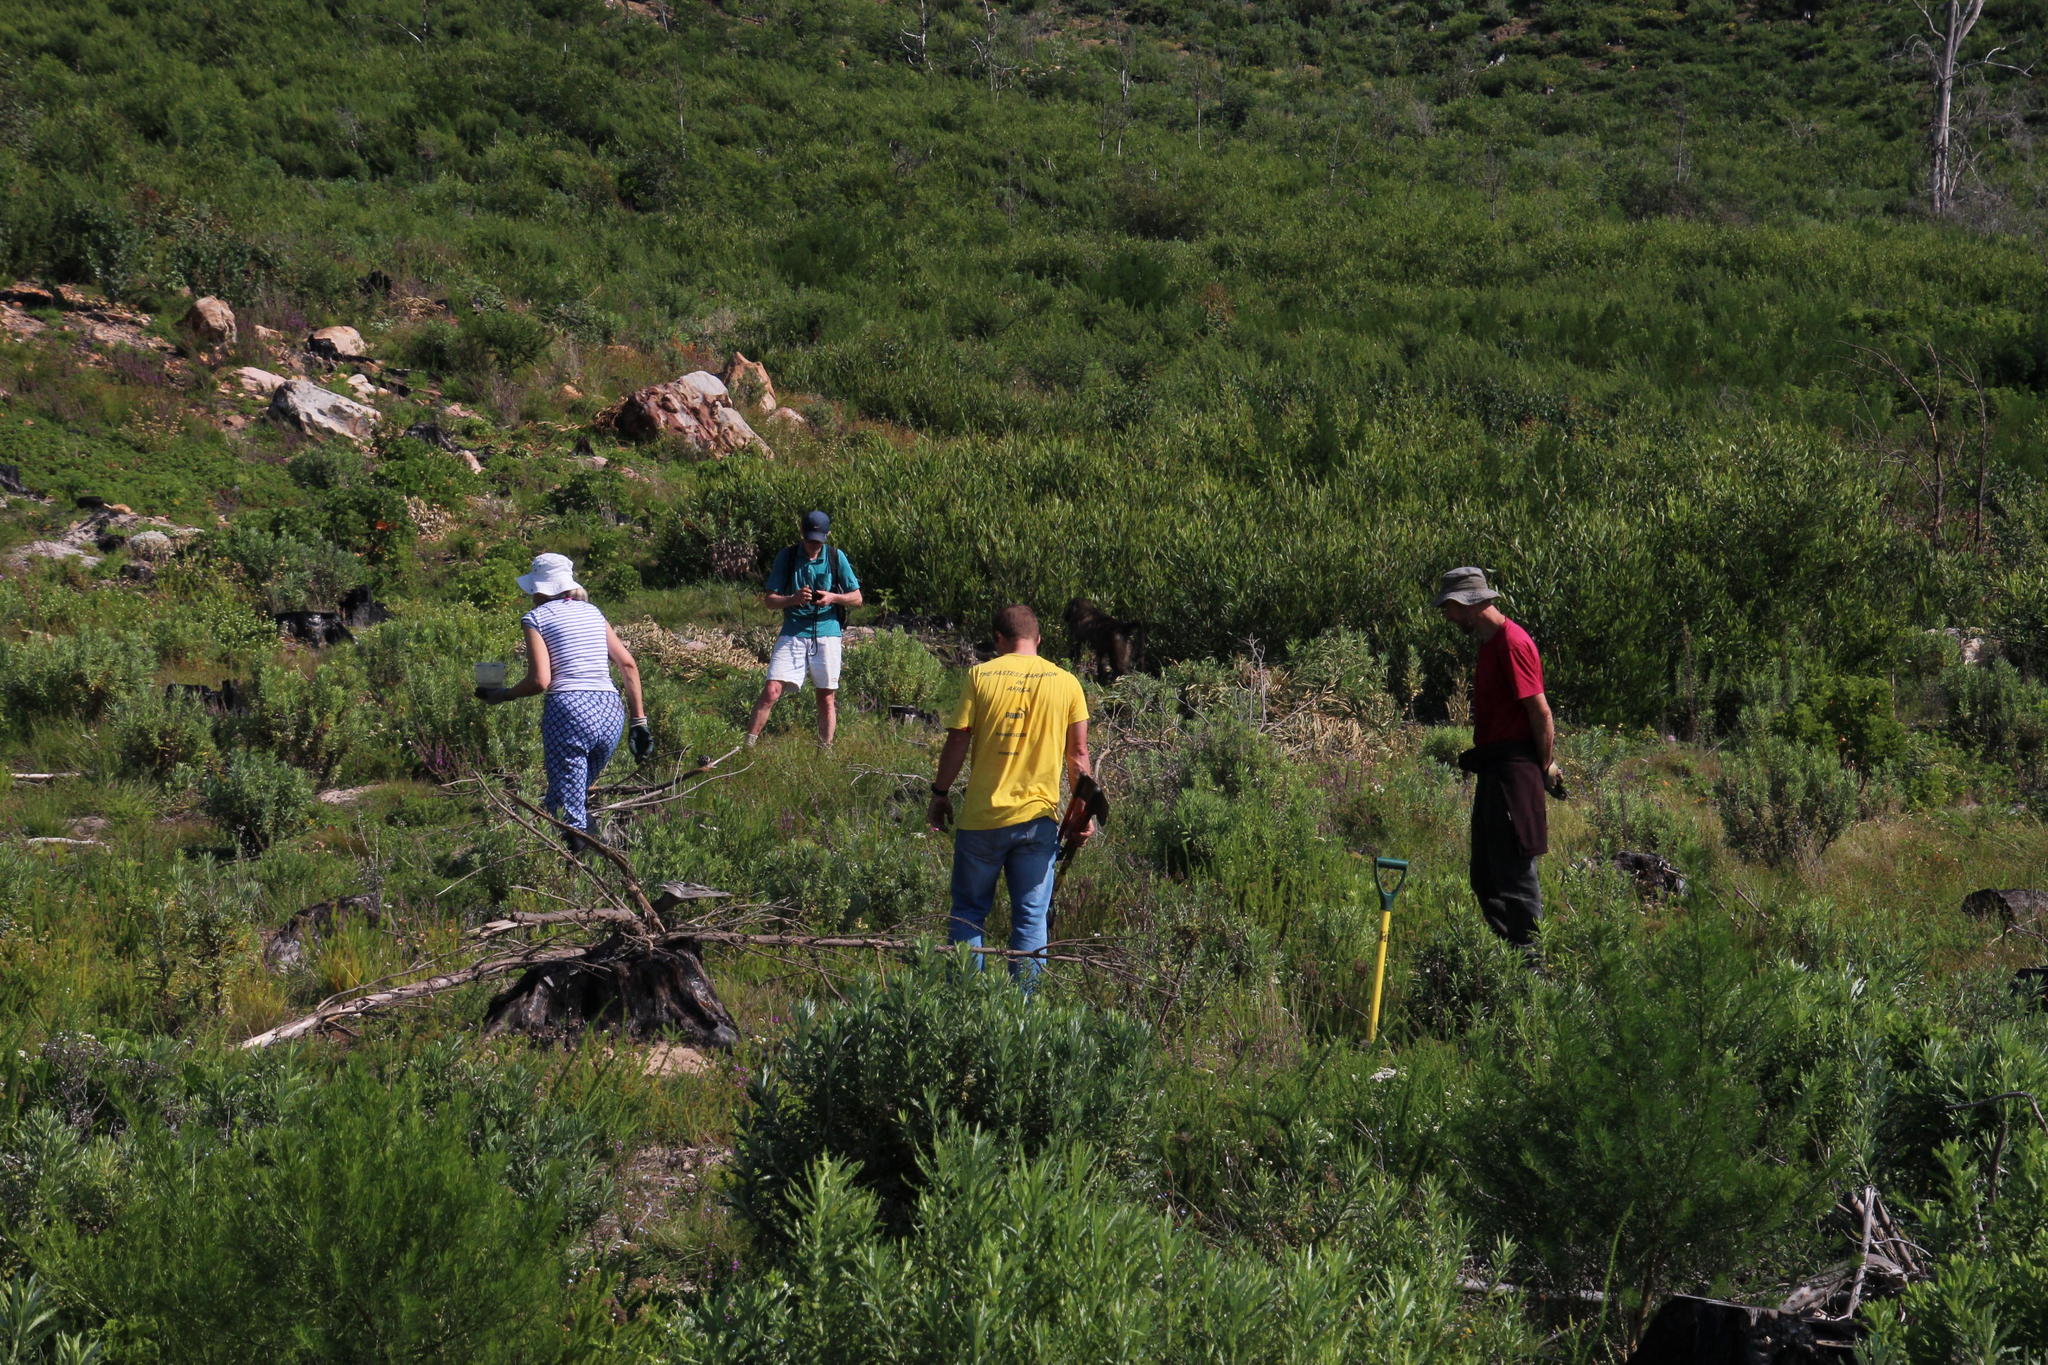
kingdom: Plantae
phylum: Tracheophyta
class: Magnoliopsida
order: Fabales
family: Fabaceae
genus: Acacia
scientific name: Acacia longifolia
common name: Sydney golden wattle
